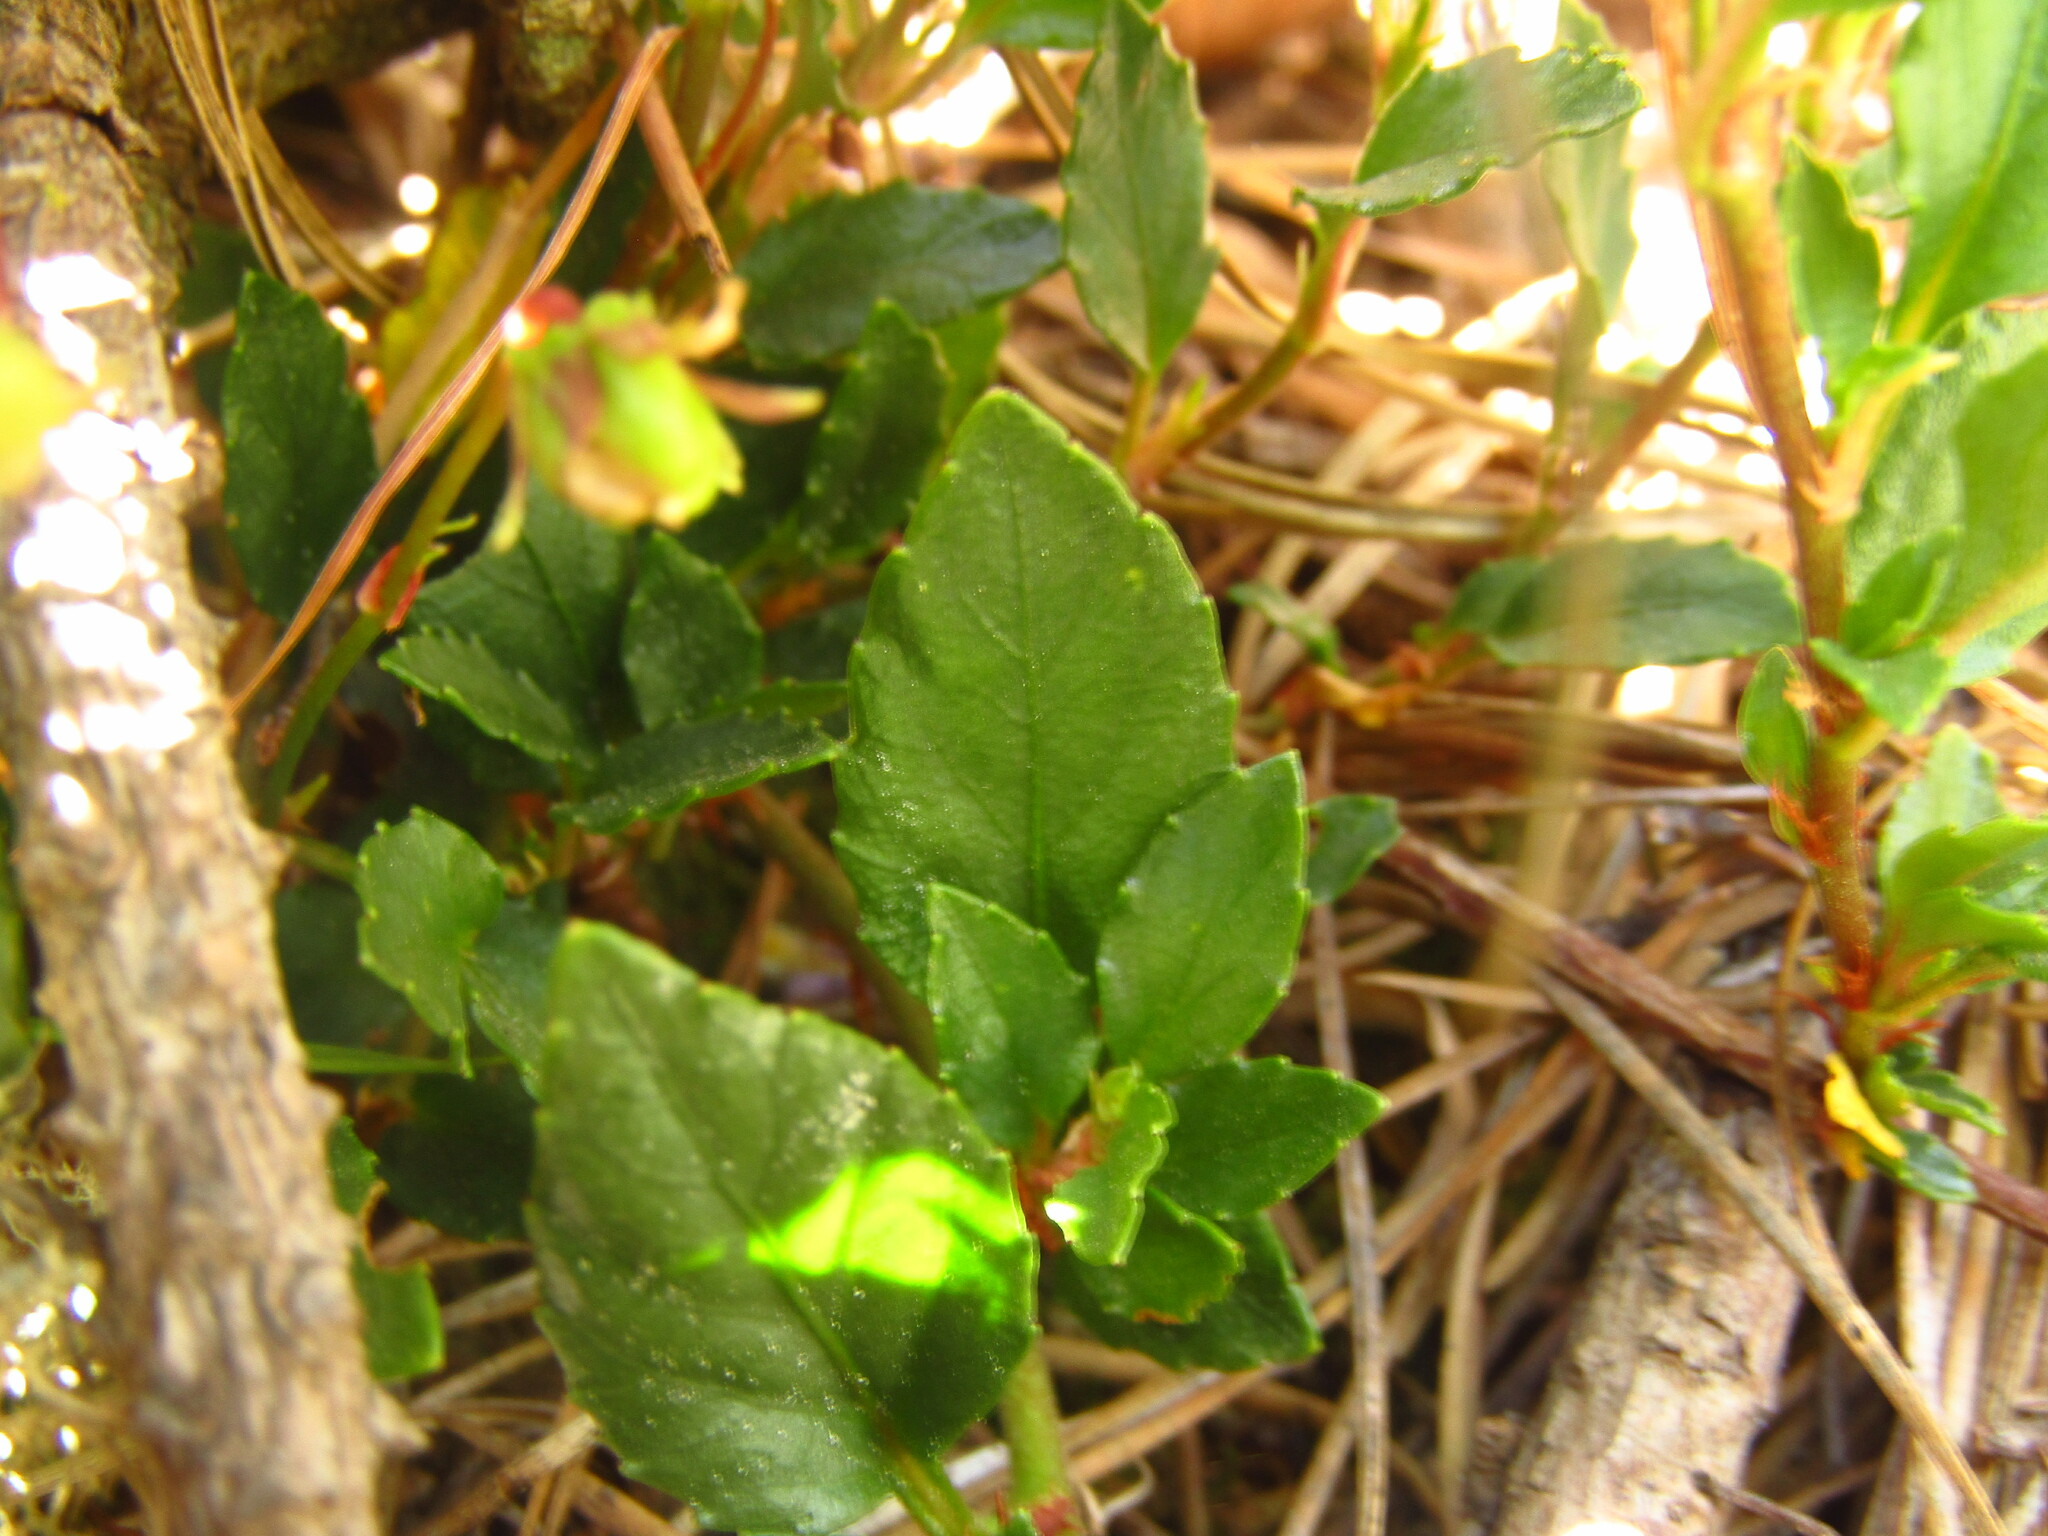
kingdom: Plantae
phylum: Tracheophyta
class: Magnoliopsida
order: Malpighiales
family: Violaceae
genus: Viola
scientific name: Viola portalesia
